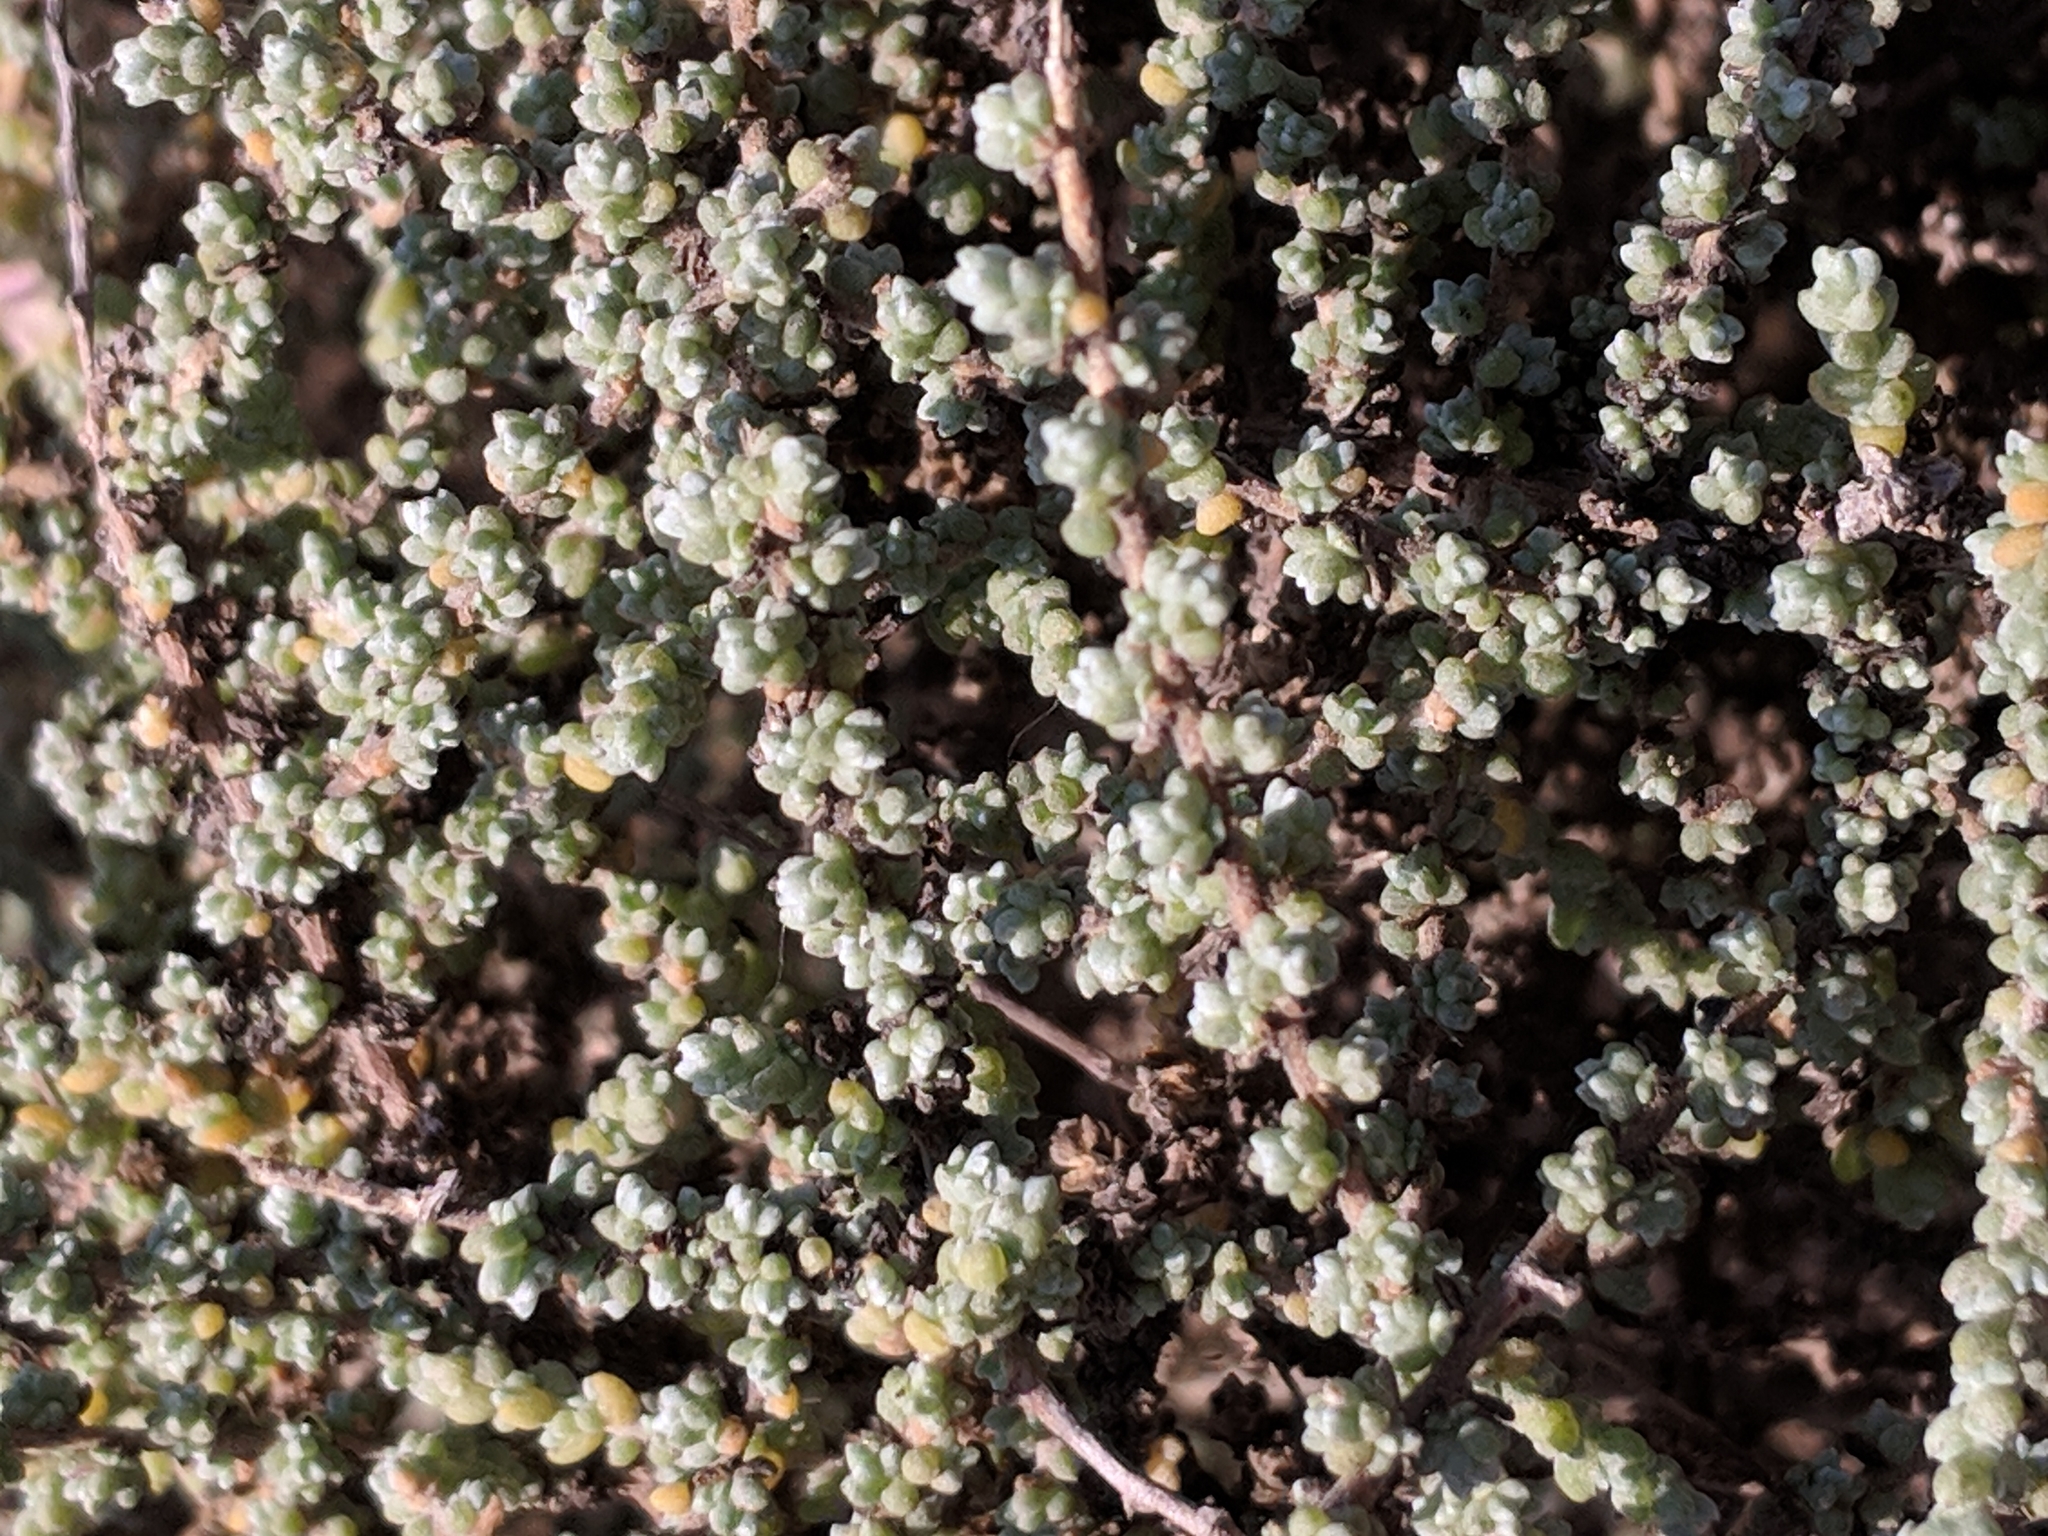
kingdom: Plantae
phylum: Tracheophyta
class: Magnoliopsida
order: Caryophyllales
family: Amaranthaceae
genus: Nitrosalsola
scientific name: Nitrosalsola vermiculata
